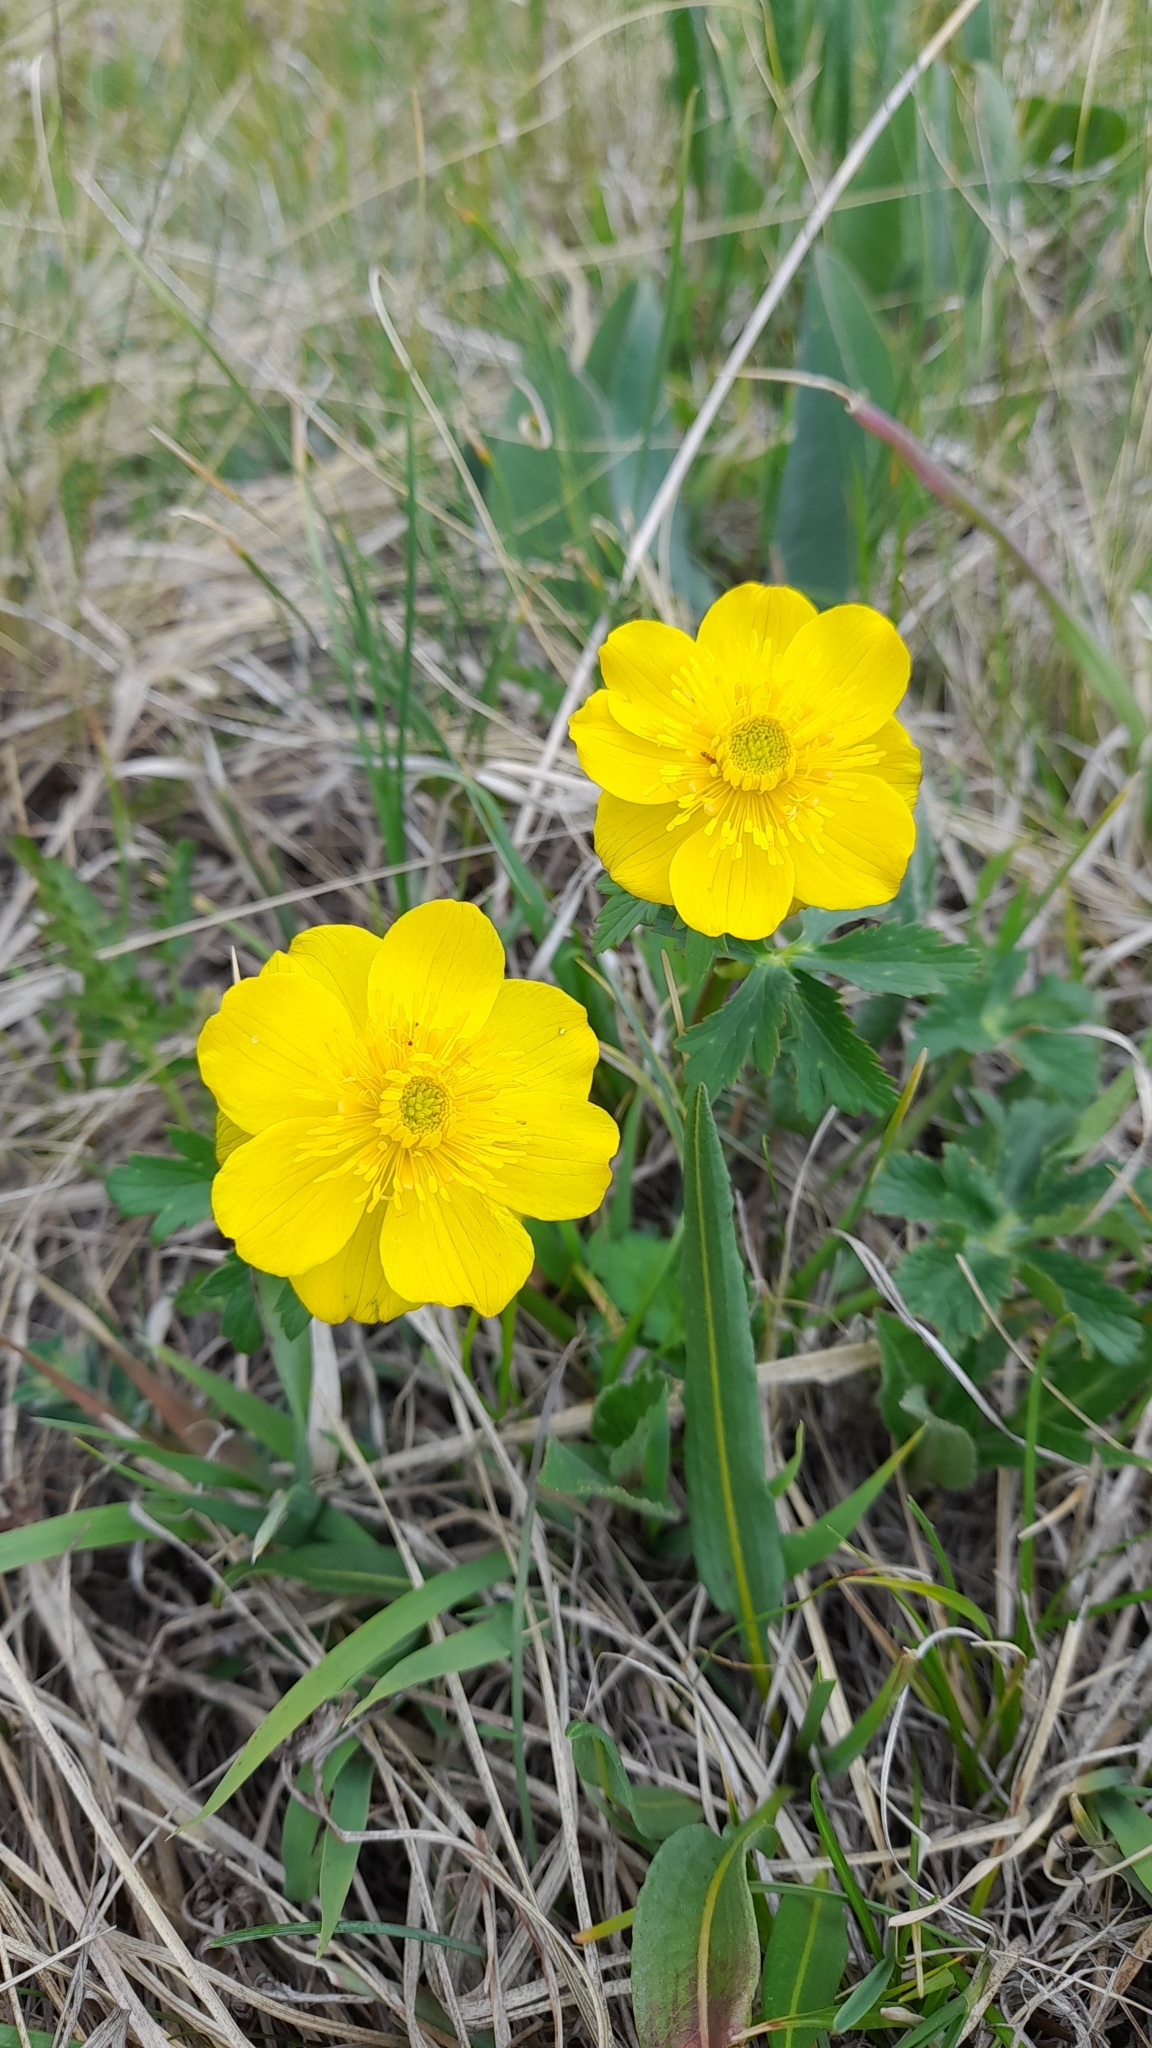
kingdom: Plantae
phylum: Tracheophyta
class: Magnoliopsida
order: Ranunculales
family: Ranunculaceae
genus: Trollius
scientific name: Trollius dschungaricus
